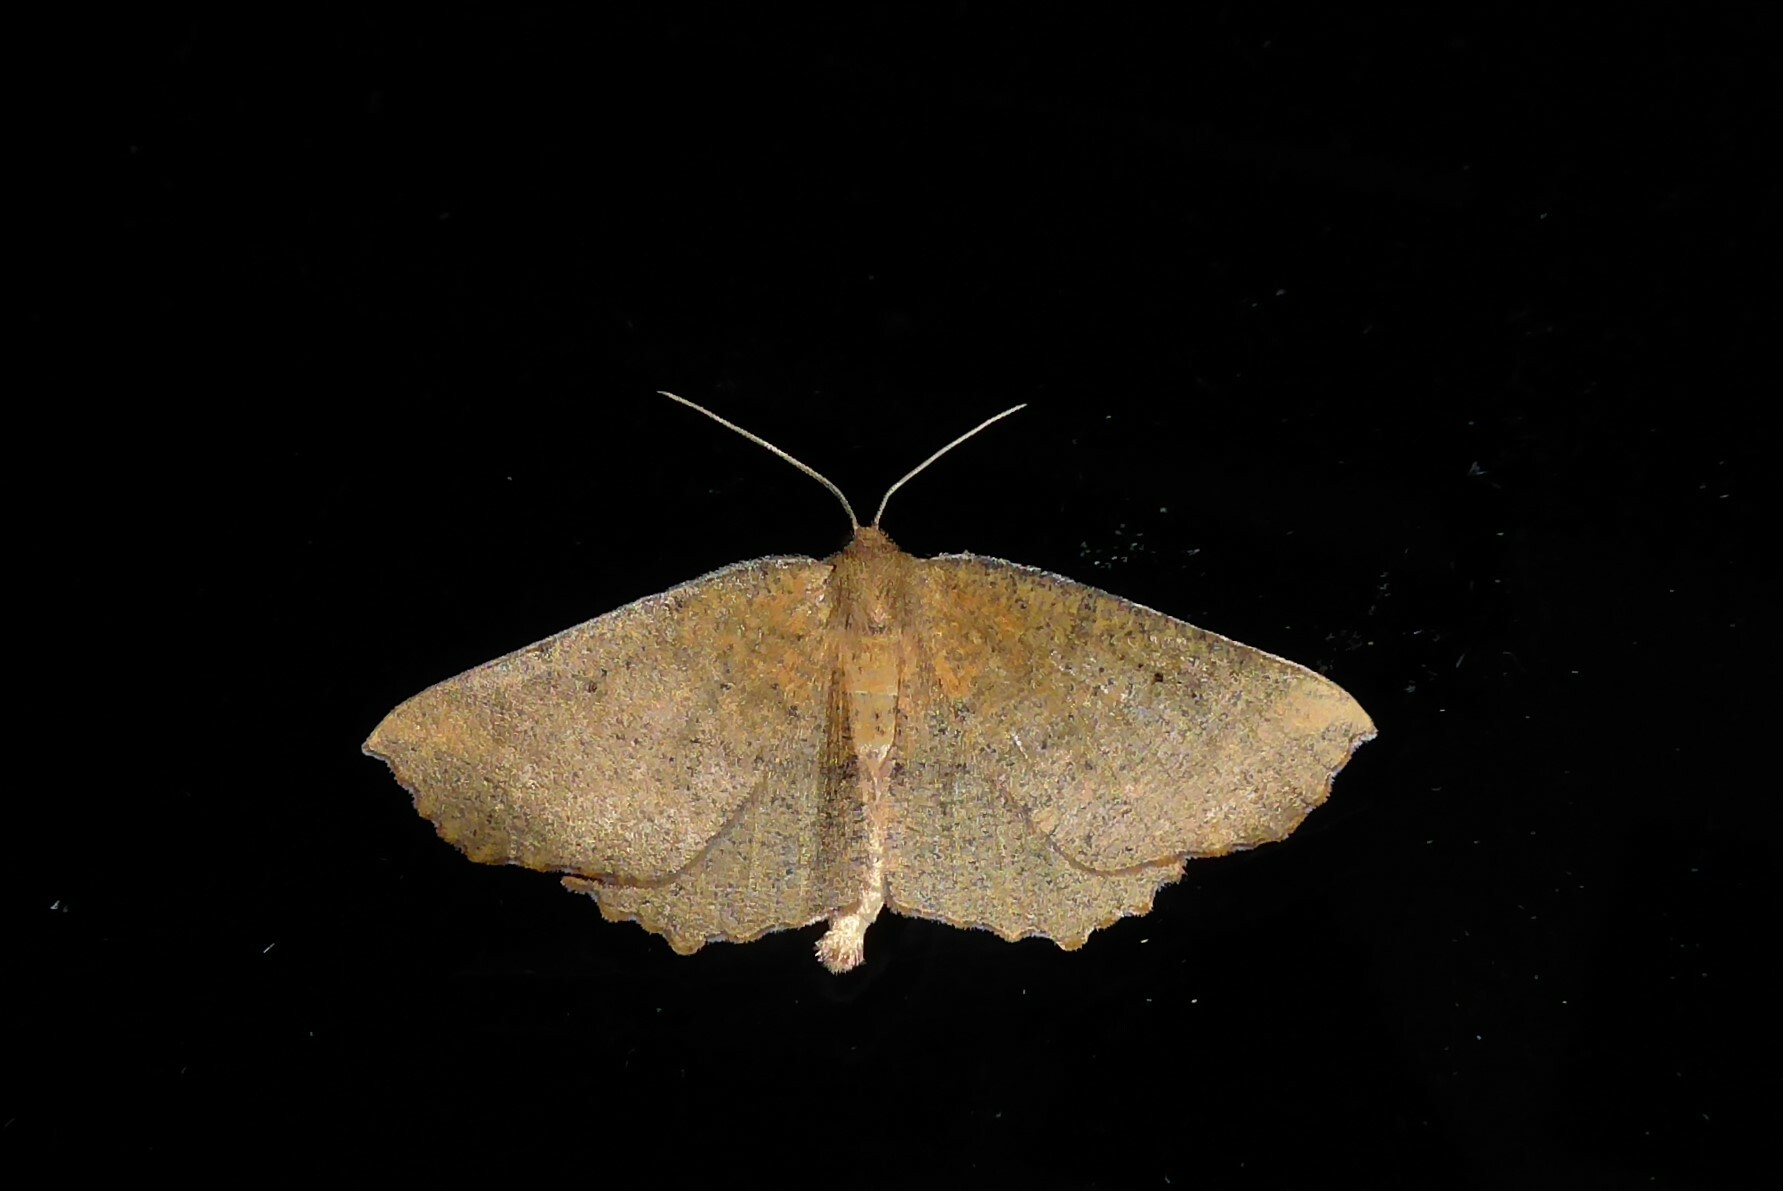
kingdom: Animalia
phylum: Arthropoda
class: Insecta
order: Lepidoptera
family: Geometridae
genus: Xyridacma
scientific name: Xyridacma ustaria
